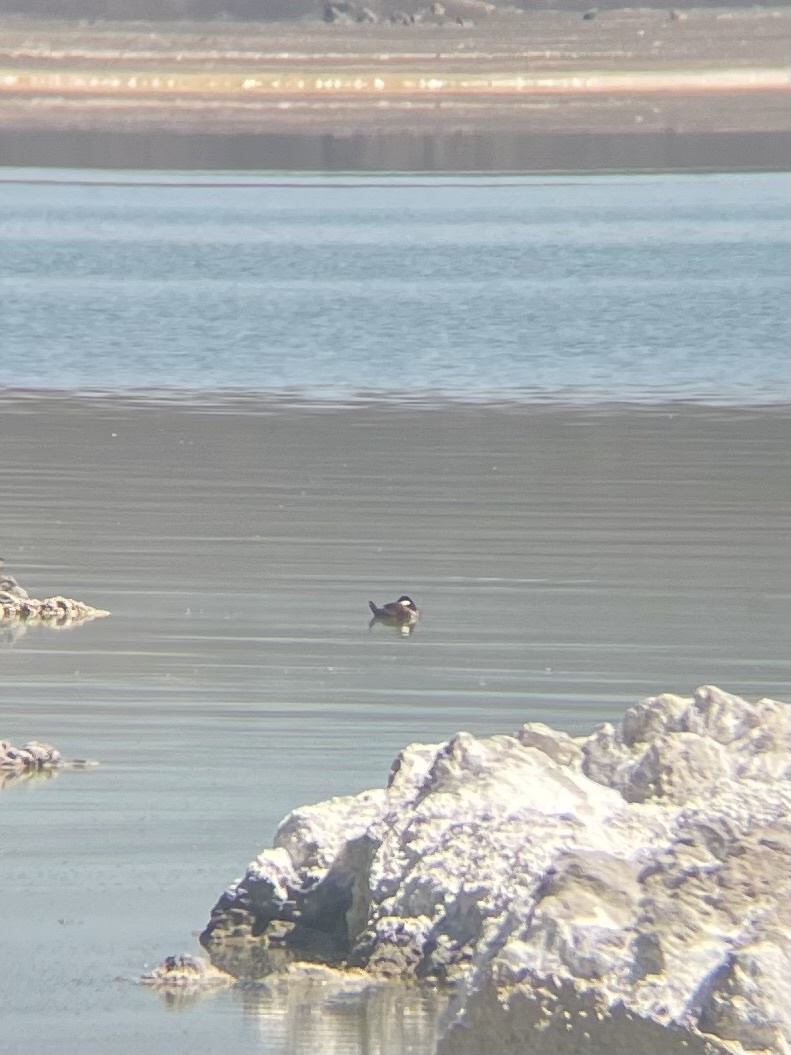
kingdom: Animalia
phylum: Chordata
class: Aves
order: Anseriformes
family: Anatidae
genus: Oxyura
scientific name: Oxyura jamaicensis
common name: Ruddy duck
